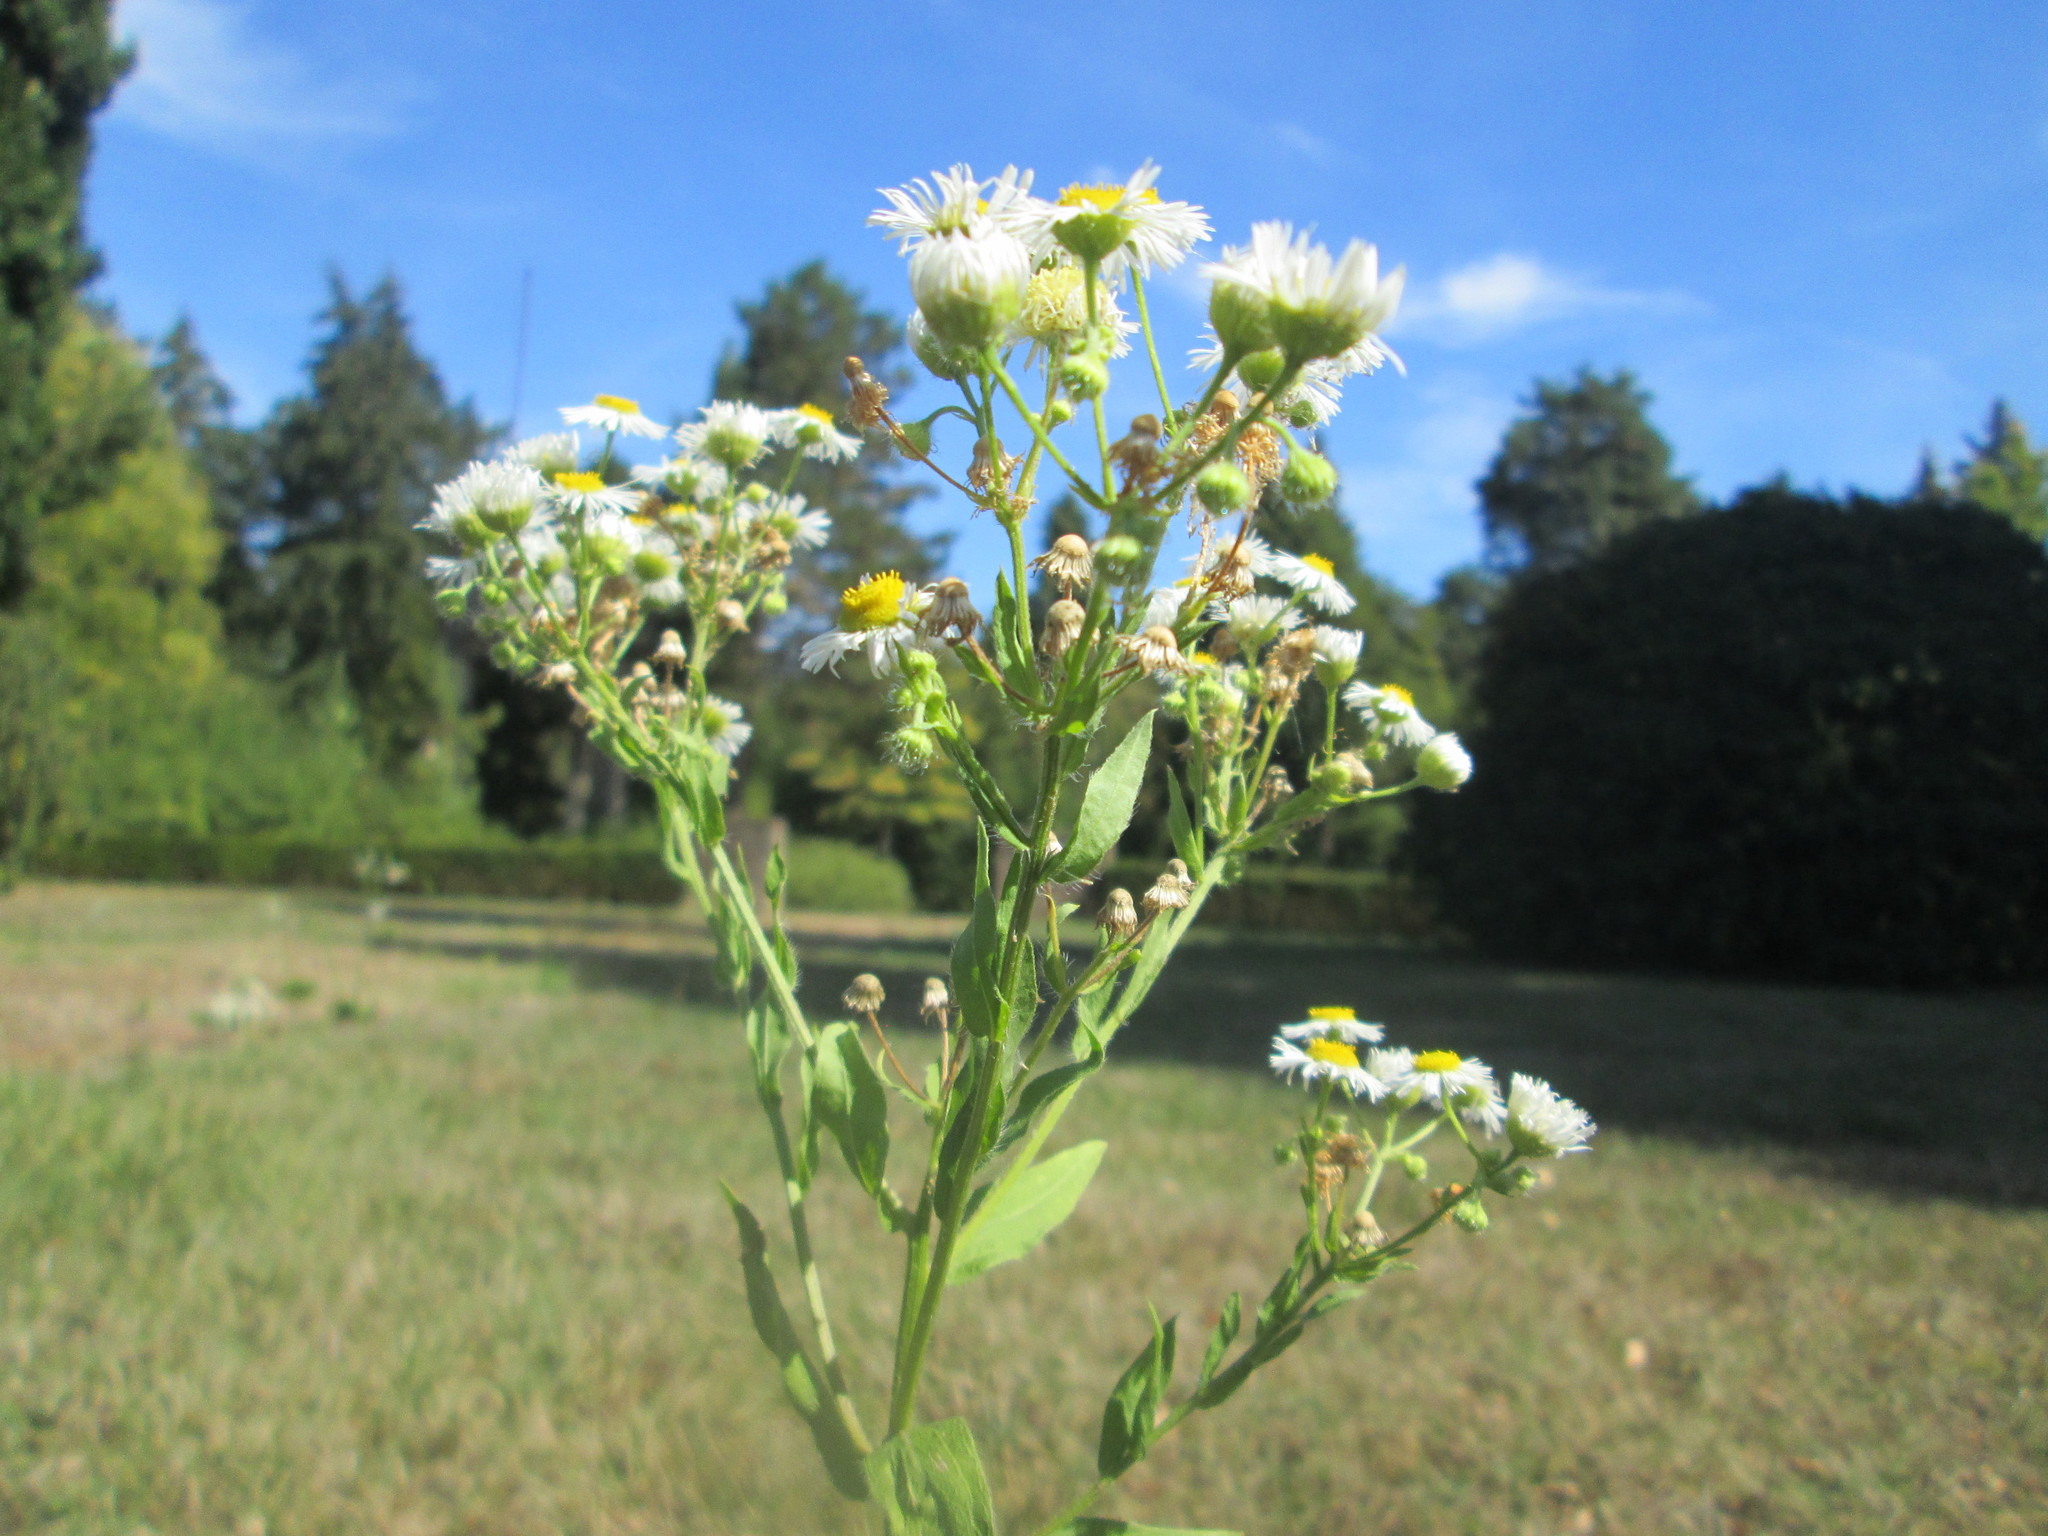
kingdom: Plantae
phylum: Tracheophyta
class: Magnoliopsida
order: Asterales
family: Asteraceae
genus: Erigeron
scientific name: Erigeron annuus
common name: Tall fleabane
